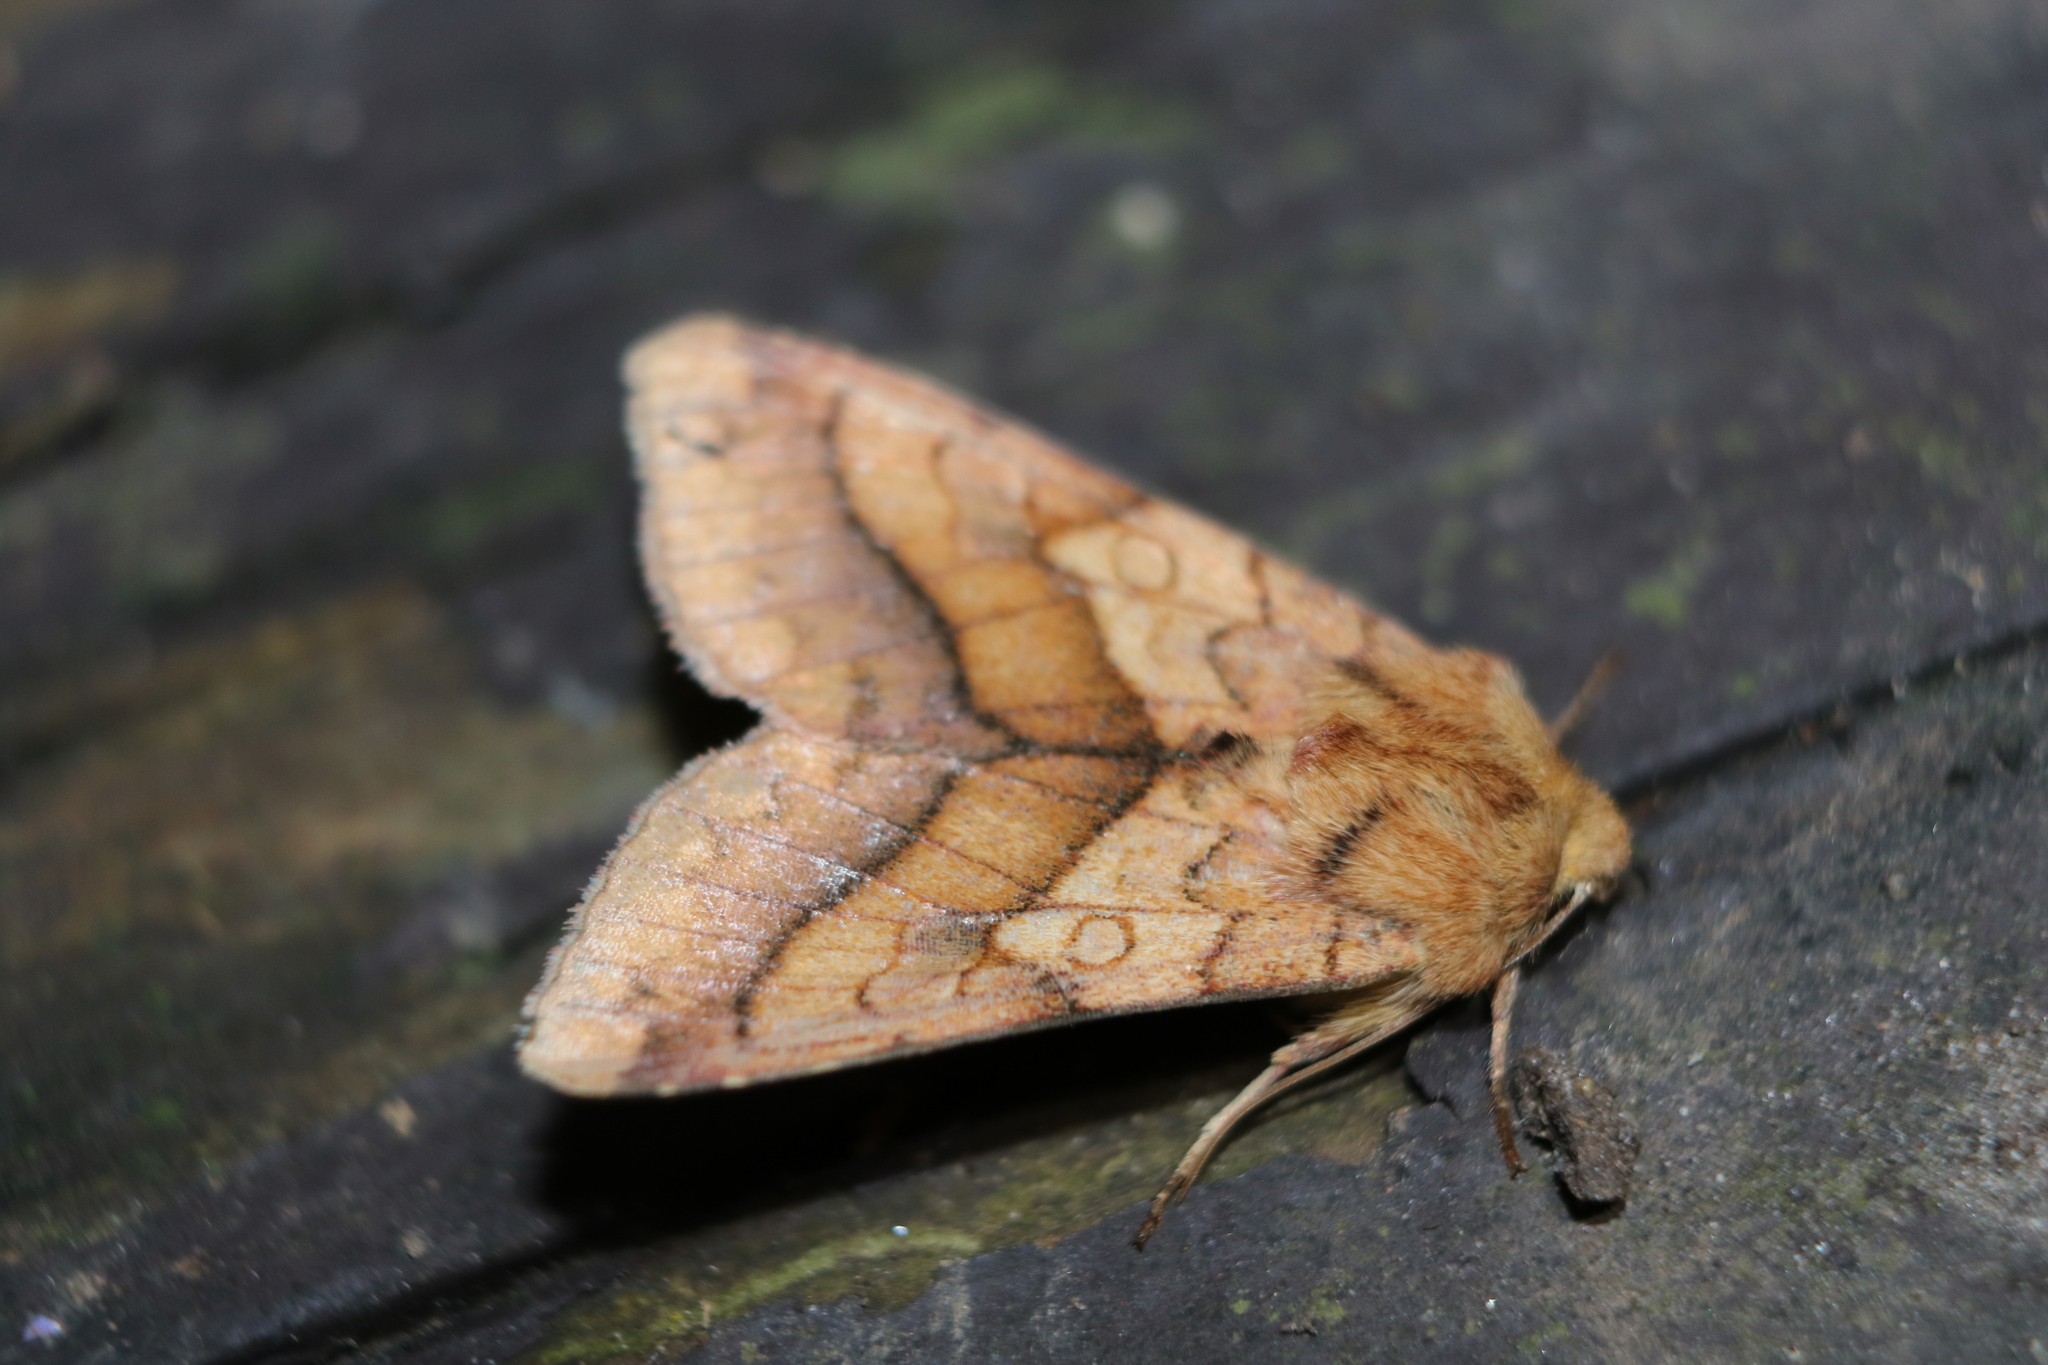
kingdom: Animalia
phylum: Arthropoda
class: Insecta
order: Lepidoptera
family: Noctuidae
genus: Pyrrhia
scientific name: Pyrrhia exprimens
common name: Purple-lined sallow
